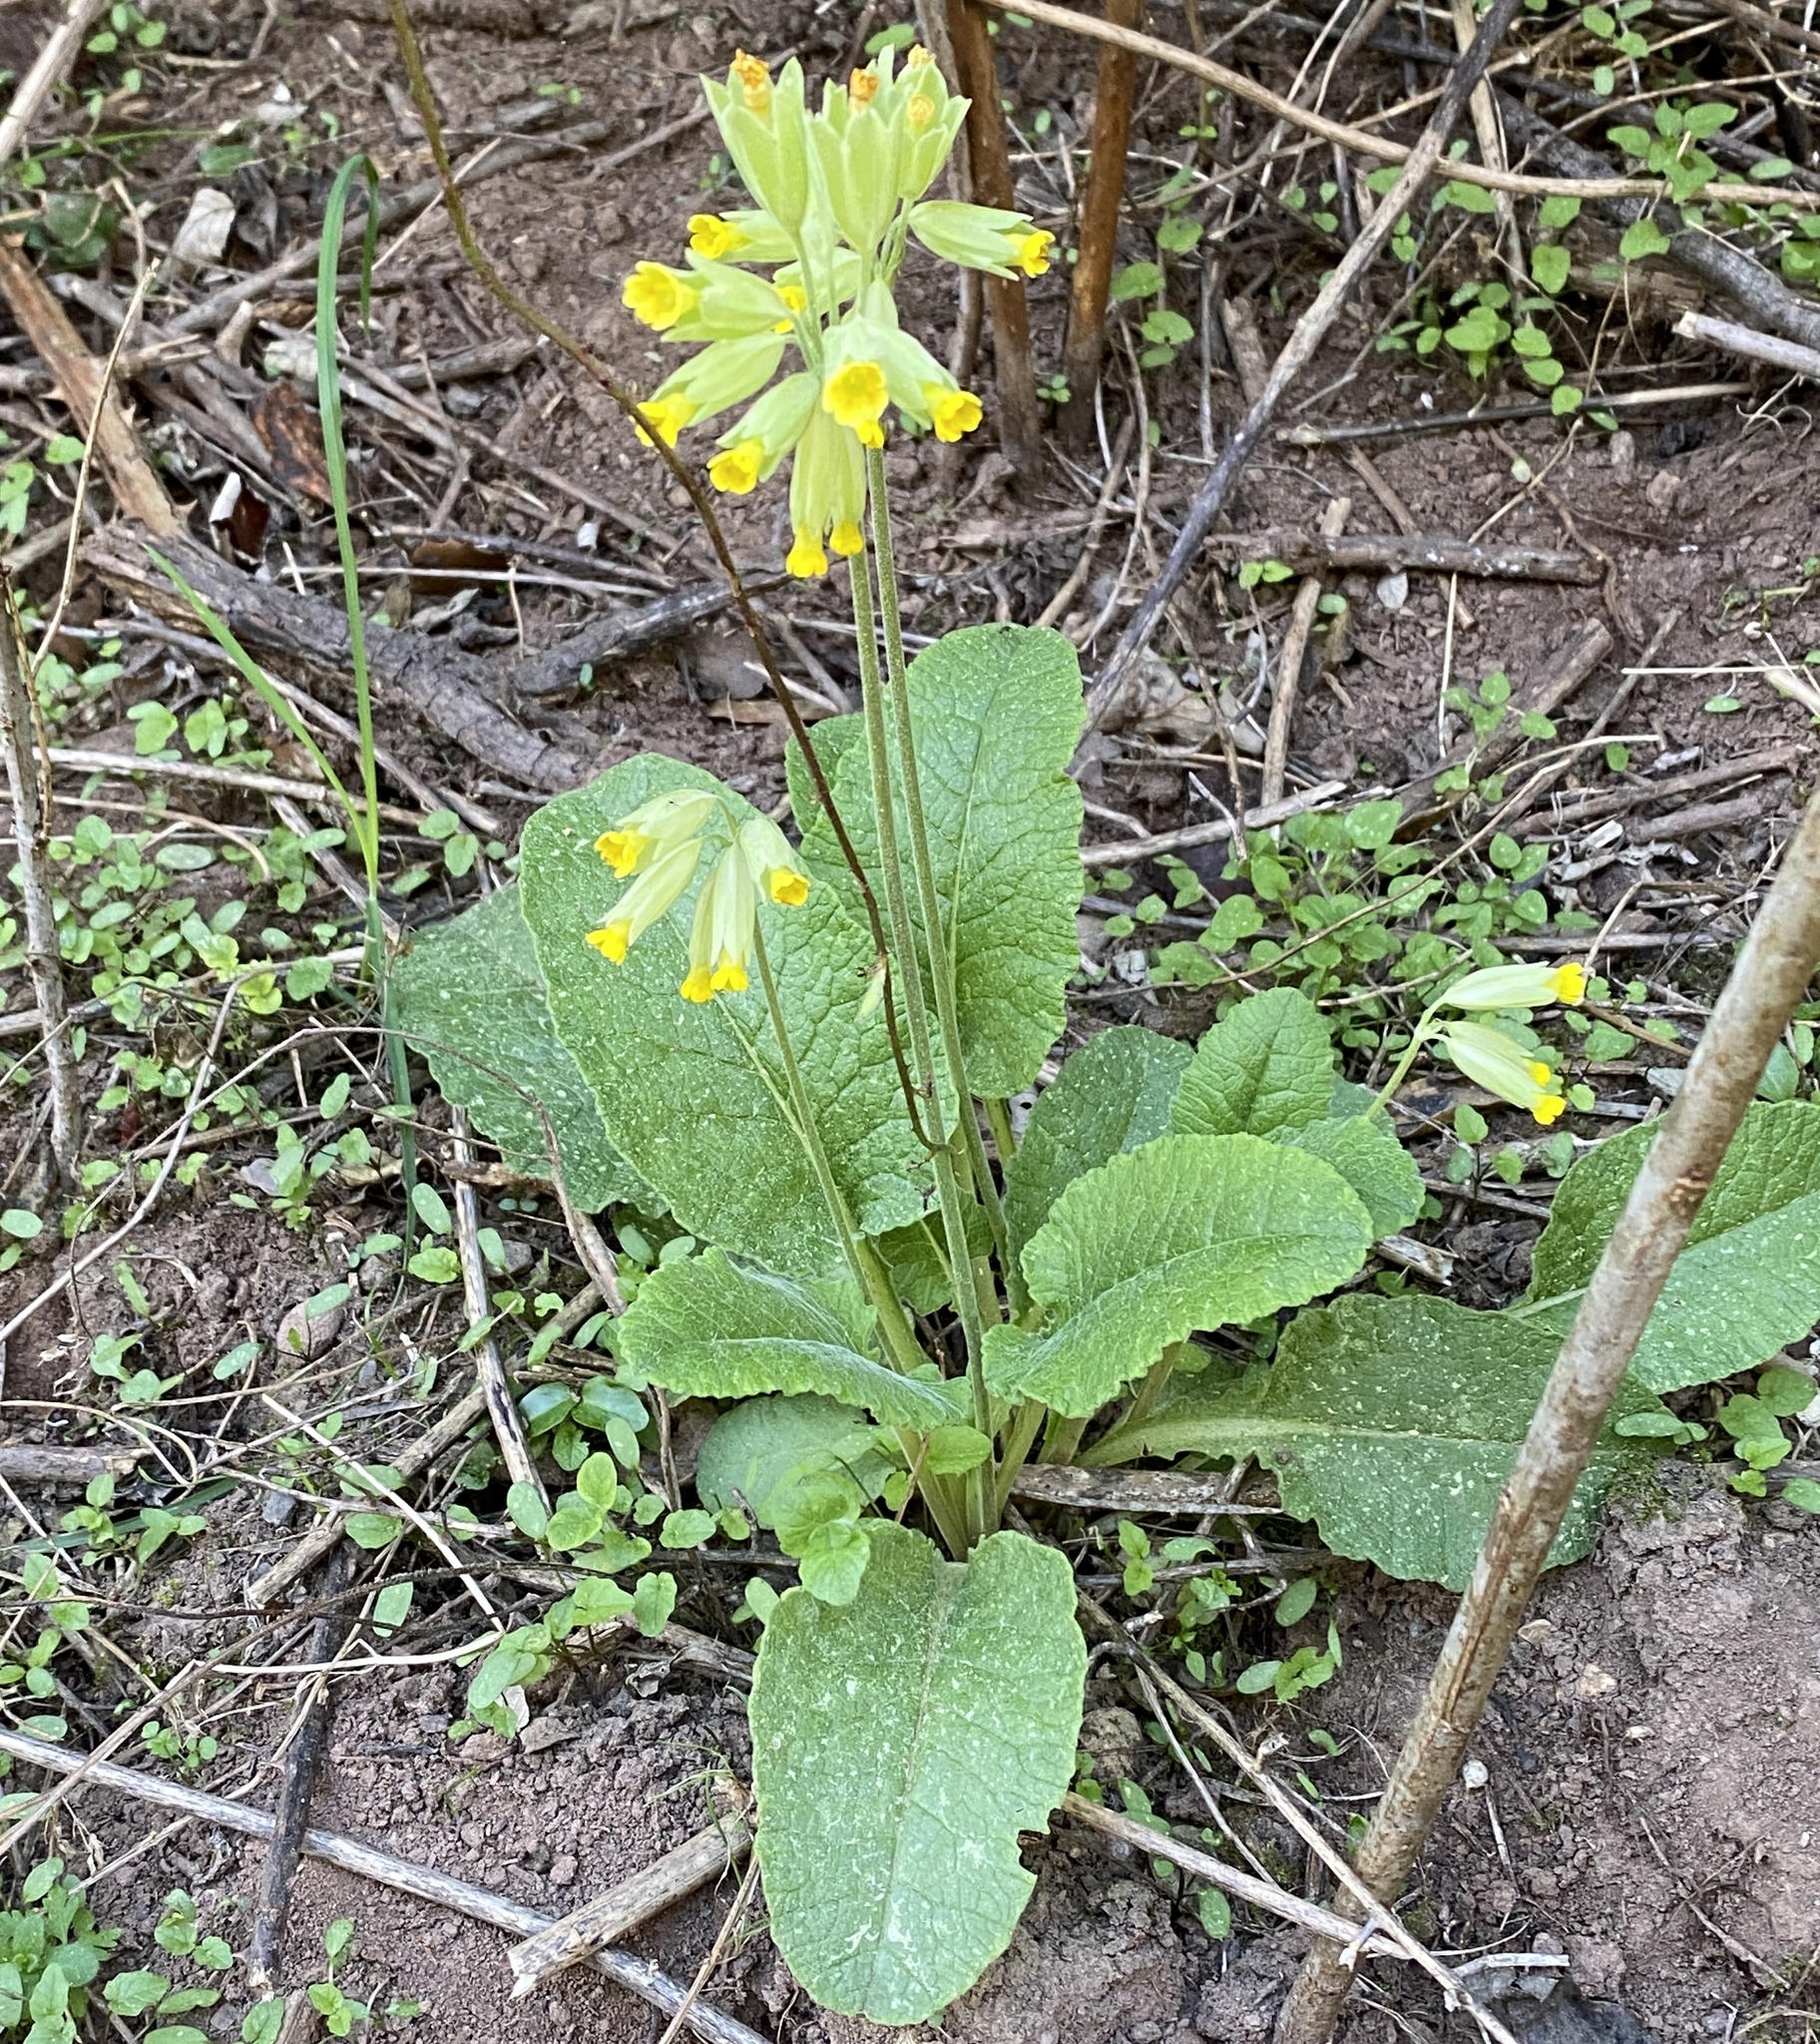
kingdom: Plantae
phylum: Tracheophyta
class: Magnoliopsida
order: Ericales
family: Primulaceae
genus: Primula
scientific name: Primula veris
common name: Cowslip
